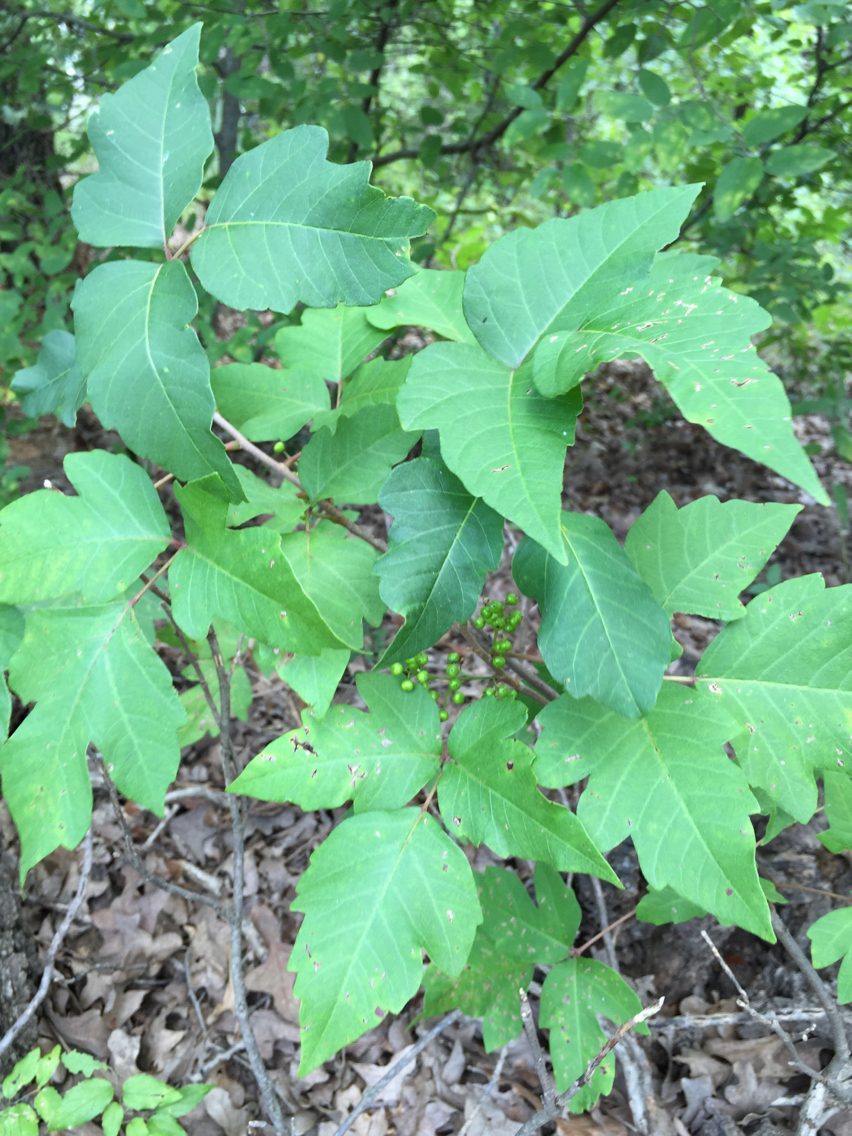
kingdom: Plantae
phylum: Tracheophyta
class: Magnoliopsida
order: Sapindales
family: Anacardiaceae
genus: Toxicodendron
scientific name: Toxicodendron radicans
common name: Poison ivy
